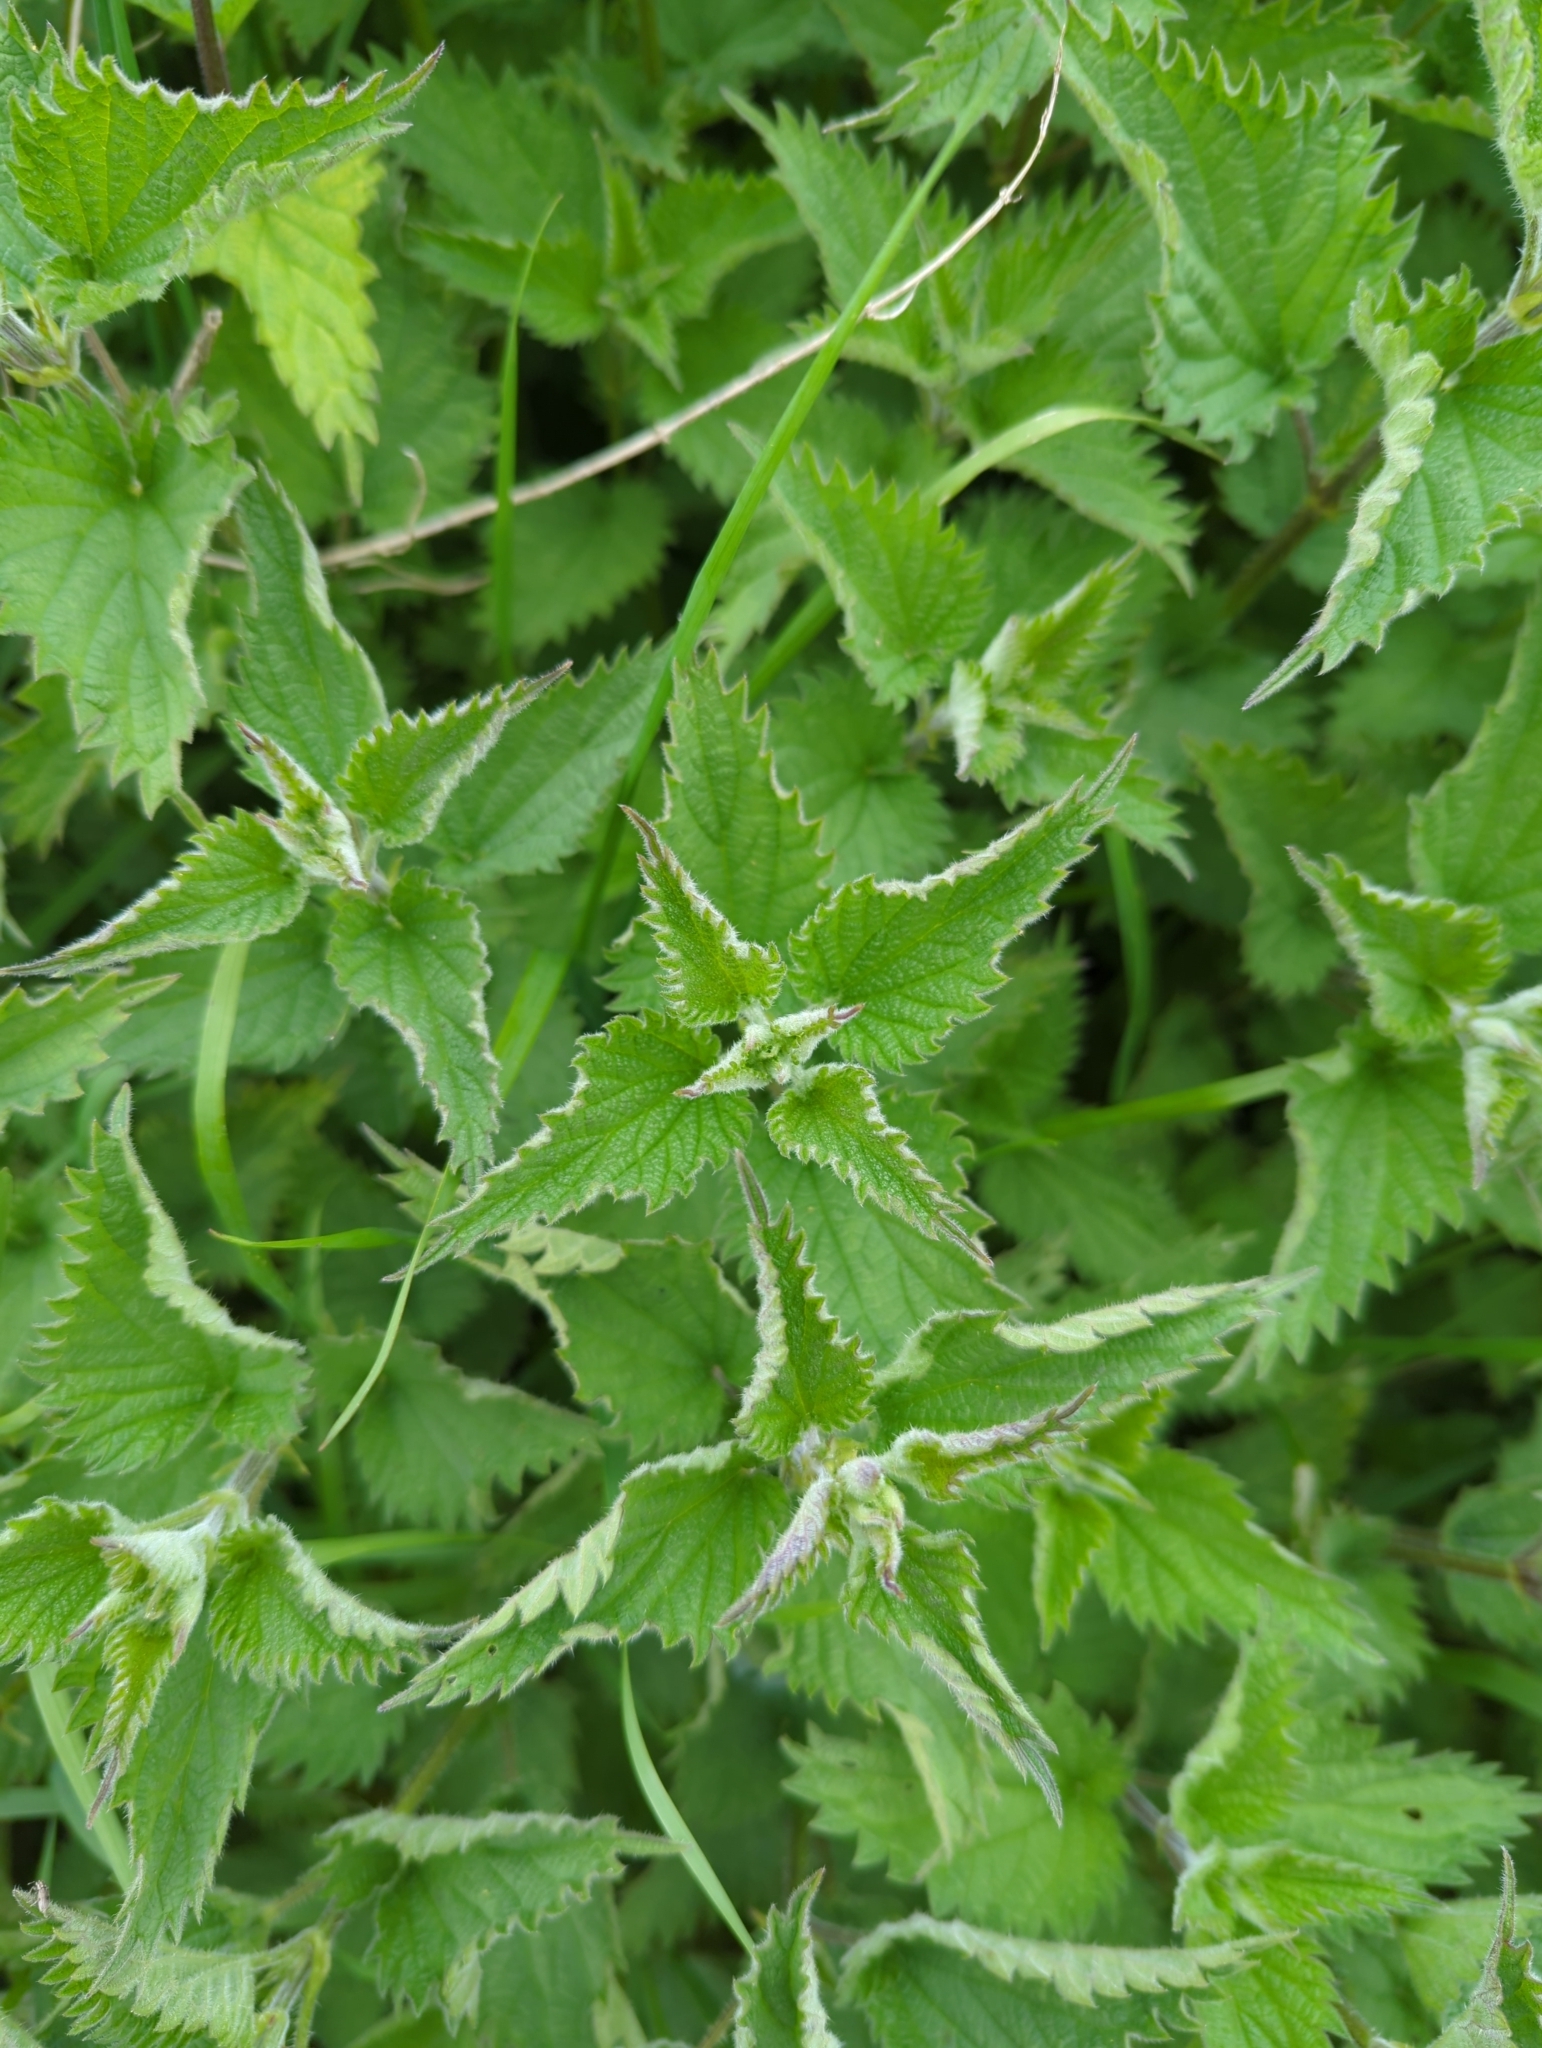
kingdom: Plantae
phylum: Tracheophyta
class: Magnoliopsida
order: Rosales
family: Urticaceae
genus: Urtica
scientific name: Urtica dioica
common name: Common nettle
